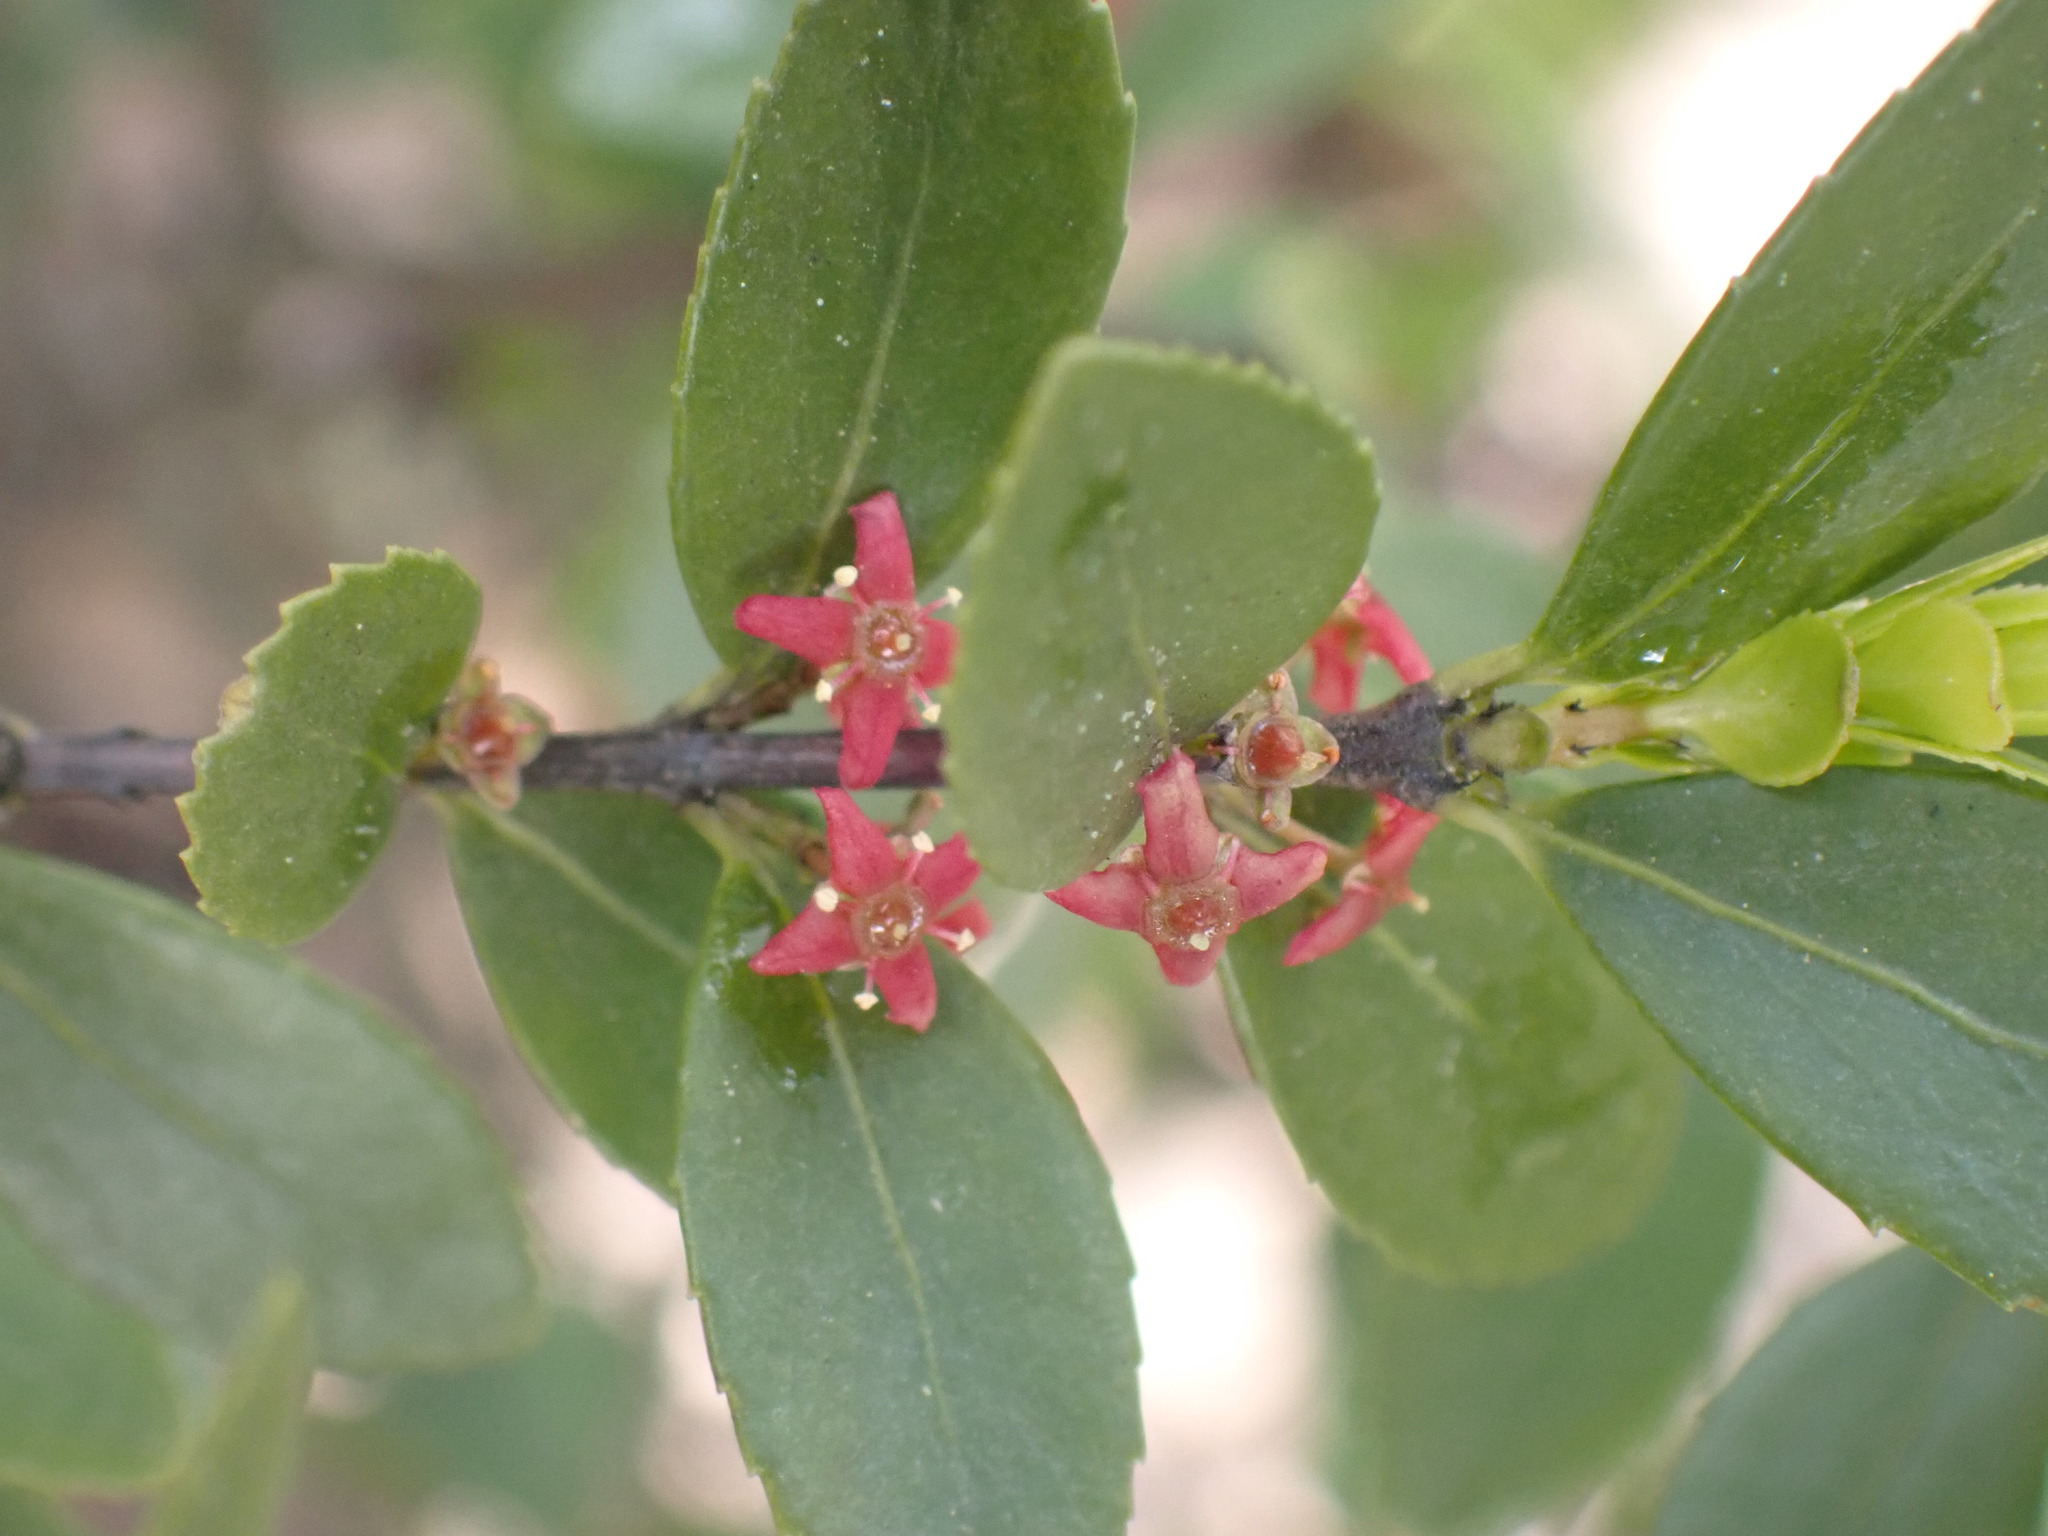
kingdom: Plantae
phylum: Tracheophyta
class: Magnoliopsida
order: Celastrales
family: Celastraceae
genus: Paxistima
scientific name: Paxistima myrsinites
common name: Mountain-lover
